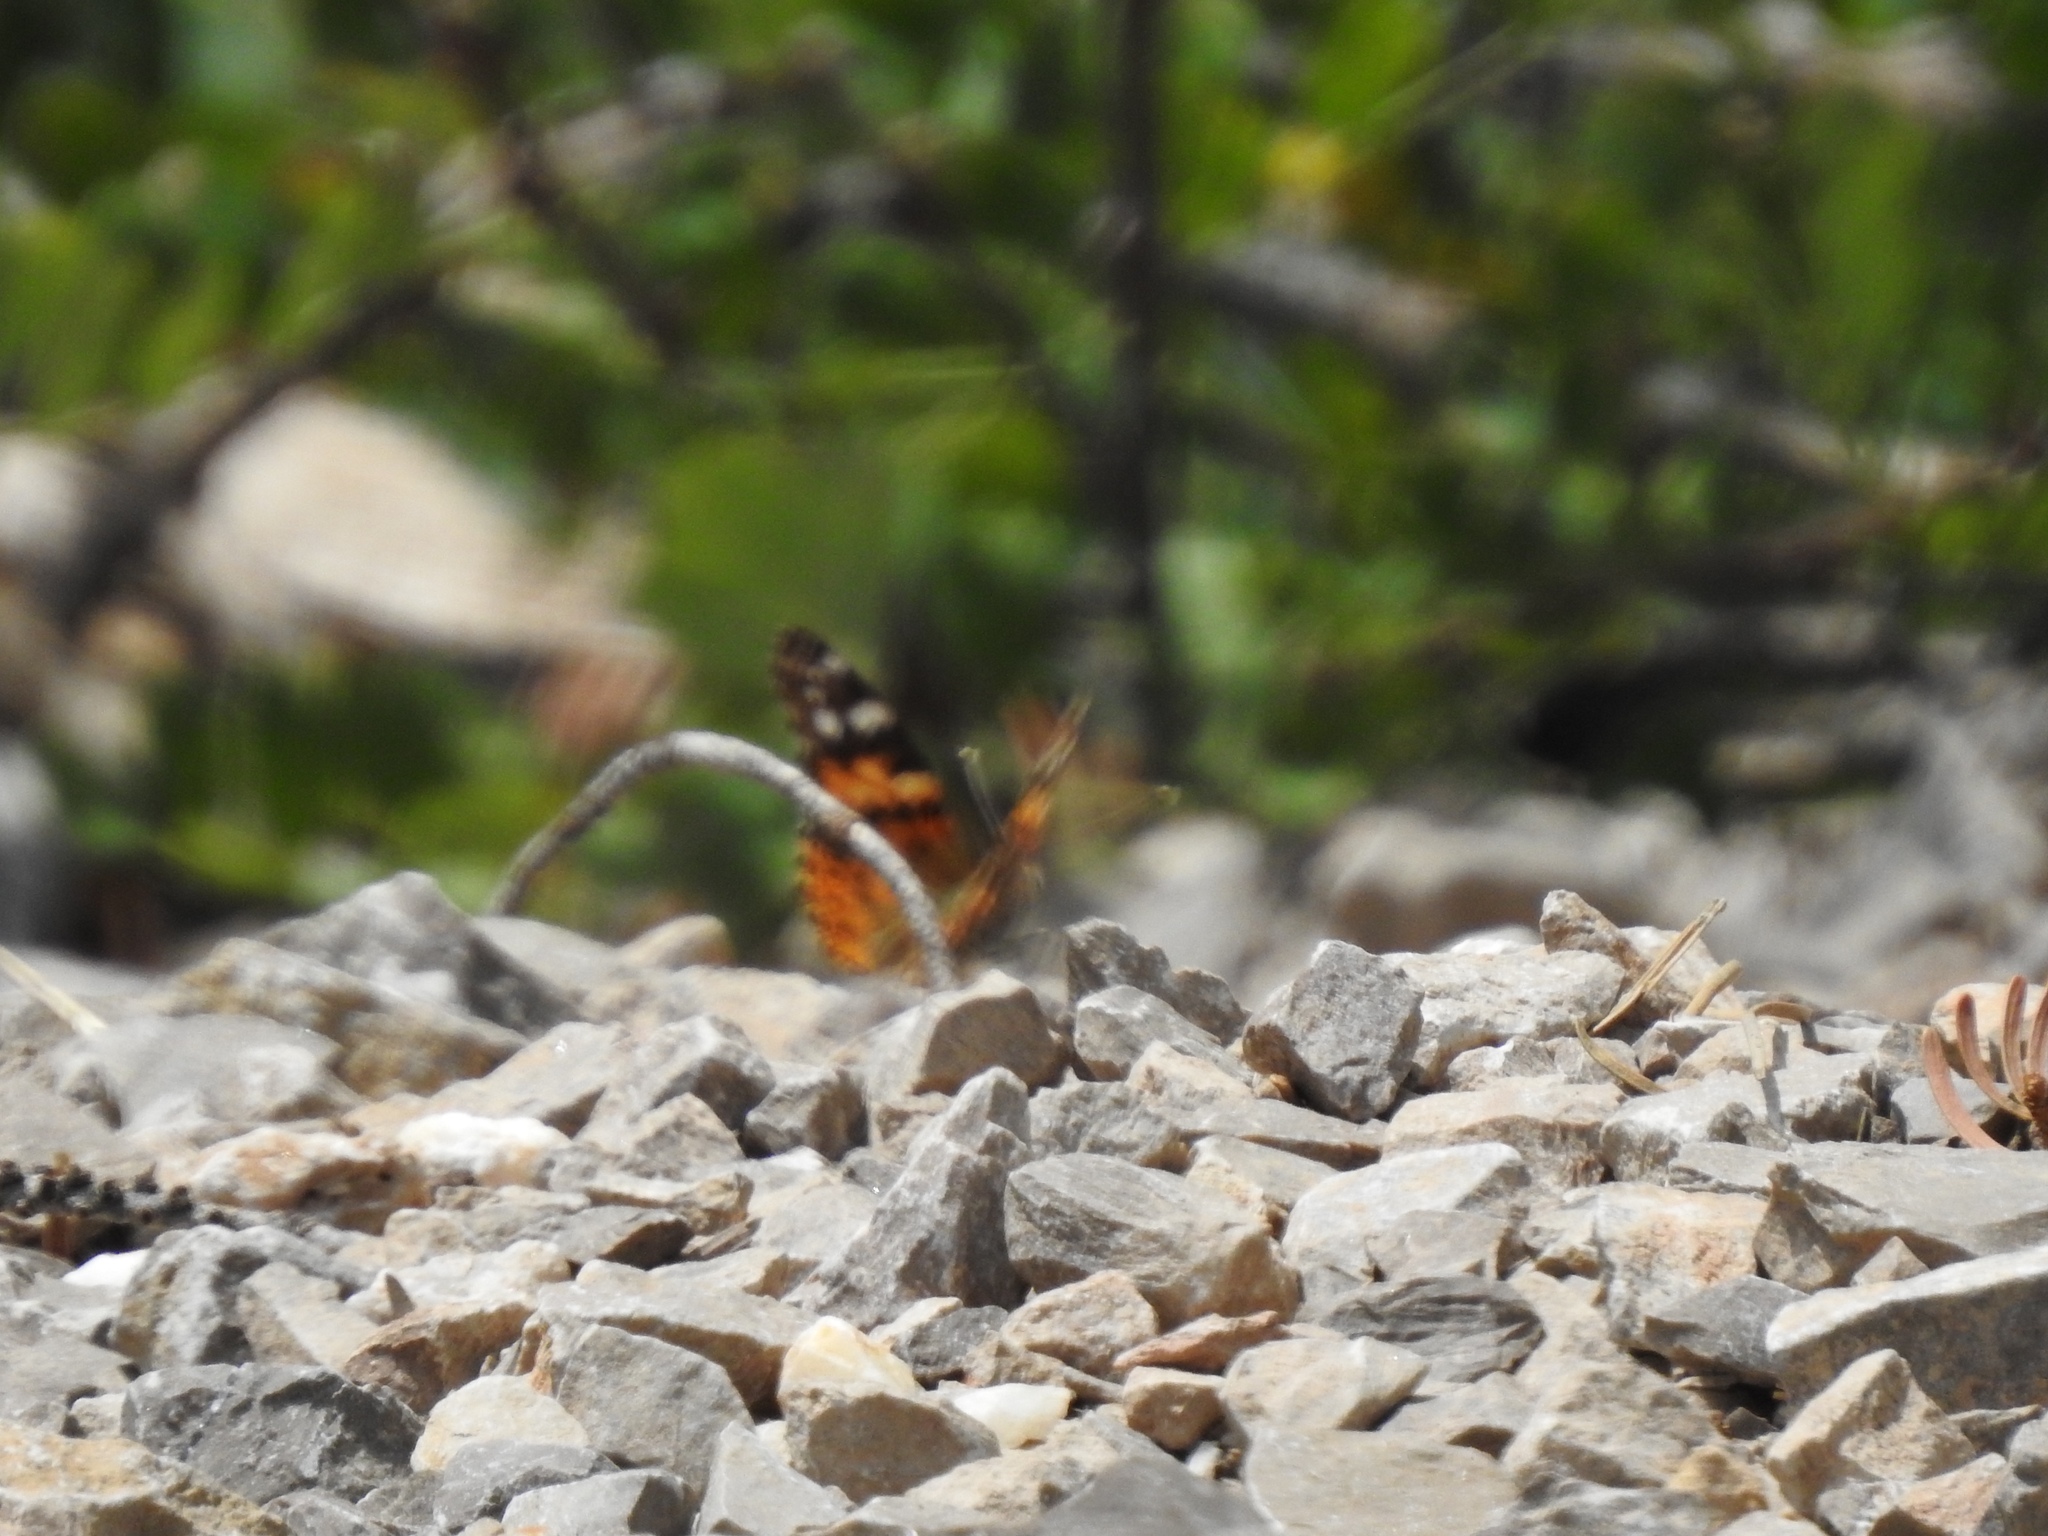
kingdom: Animalia
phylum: Arthropoda
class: Insecta
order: Lepidoptera
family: Nymphalidae
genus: Vanessa
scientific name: Vanessa cardui
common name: Painted lady
